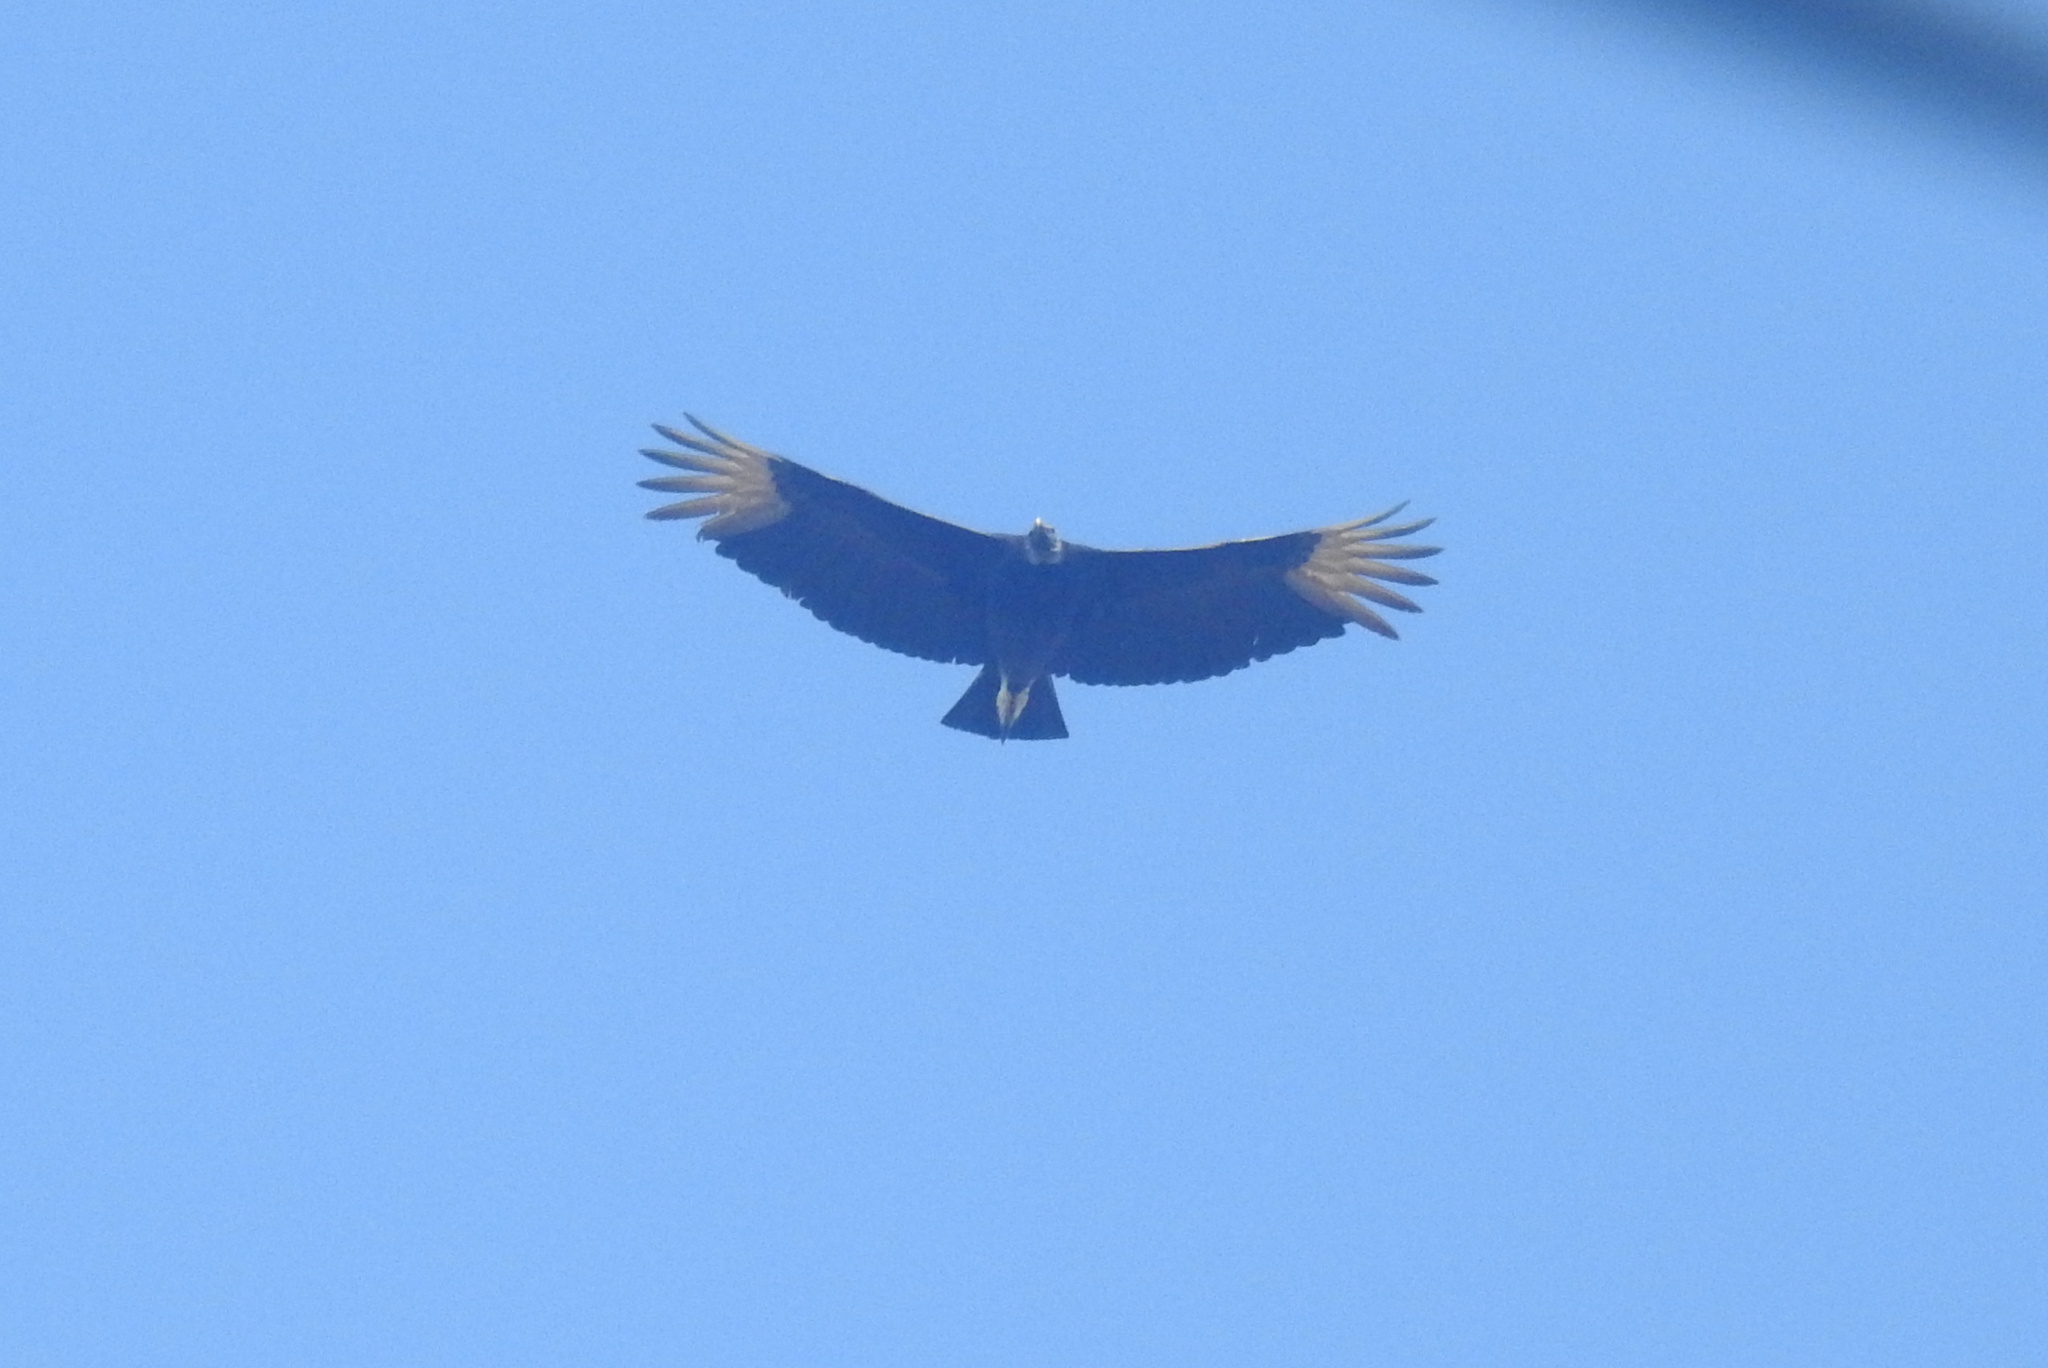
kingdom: Animalia
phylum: Chordata
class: Aves
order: Accipitriformes
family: Cathartidae
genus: Coragyps
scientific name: Coragyps atratus
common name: Black vulture
